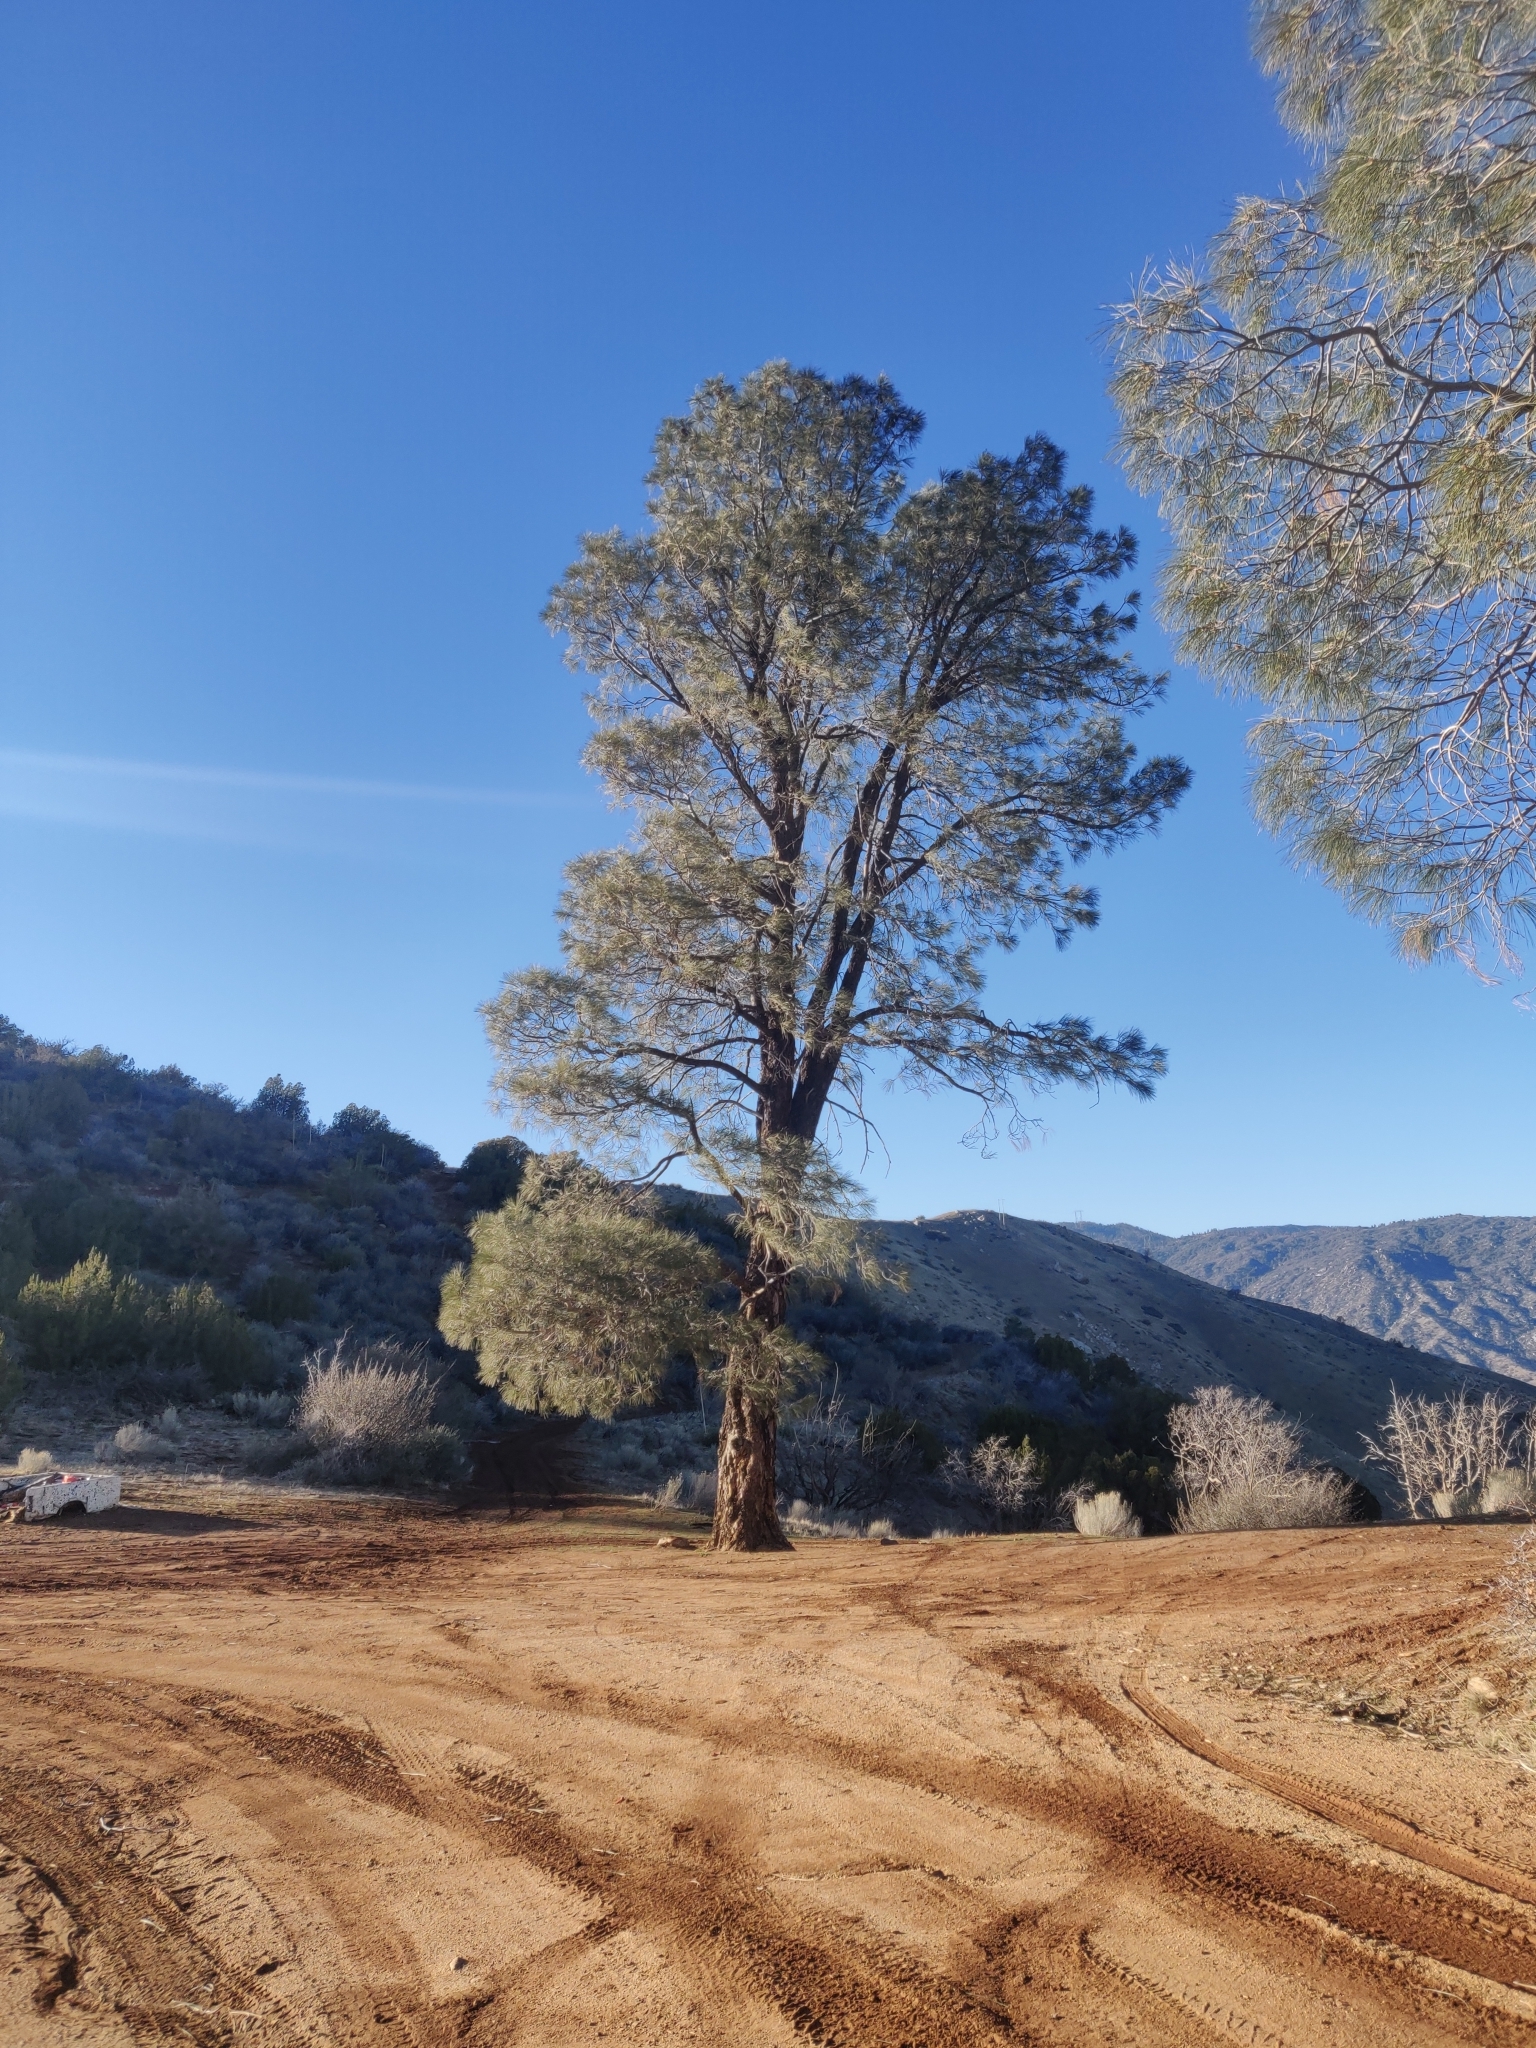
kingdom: Plantae
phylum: Tracheophyta
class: Pinopsida
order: Pinales
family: Pinaceae
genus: Pinus
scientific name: Pinus sabiniana
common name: Bull pine
